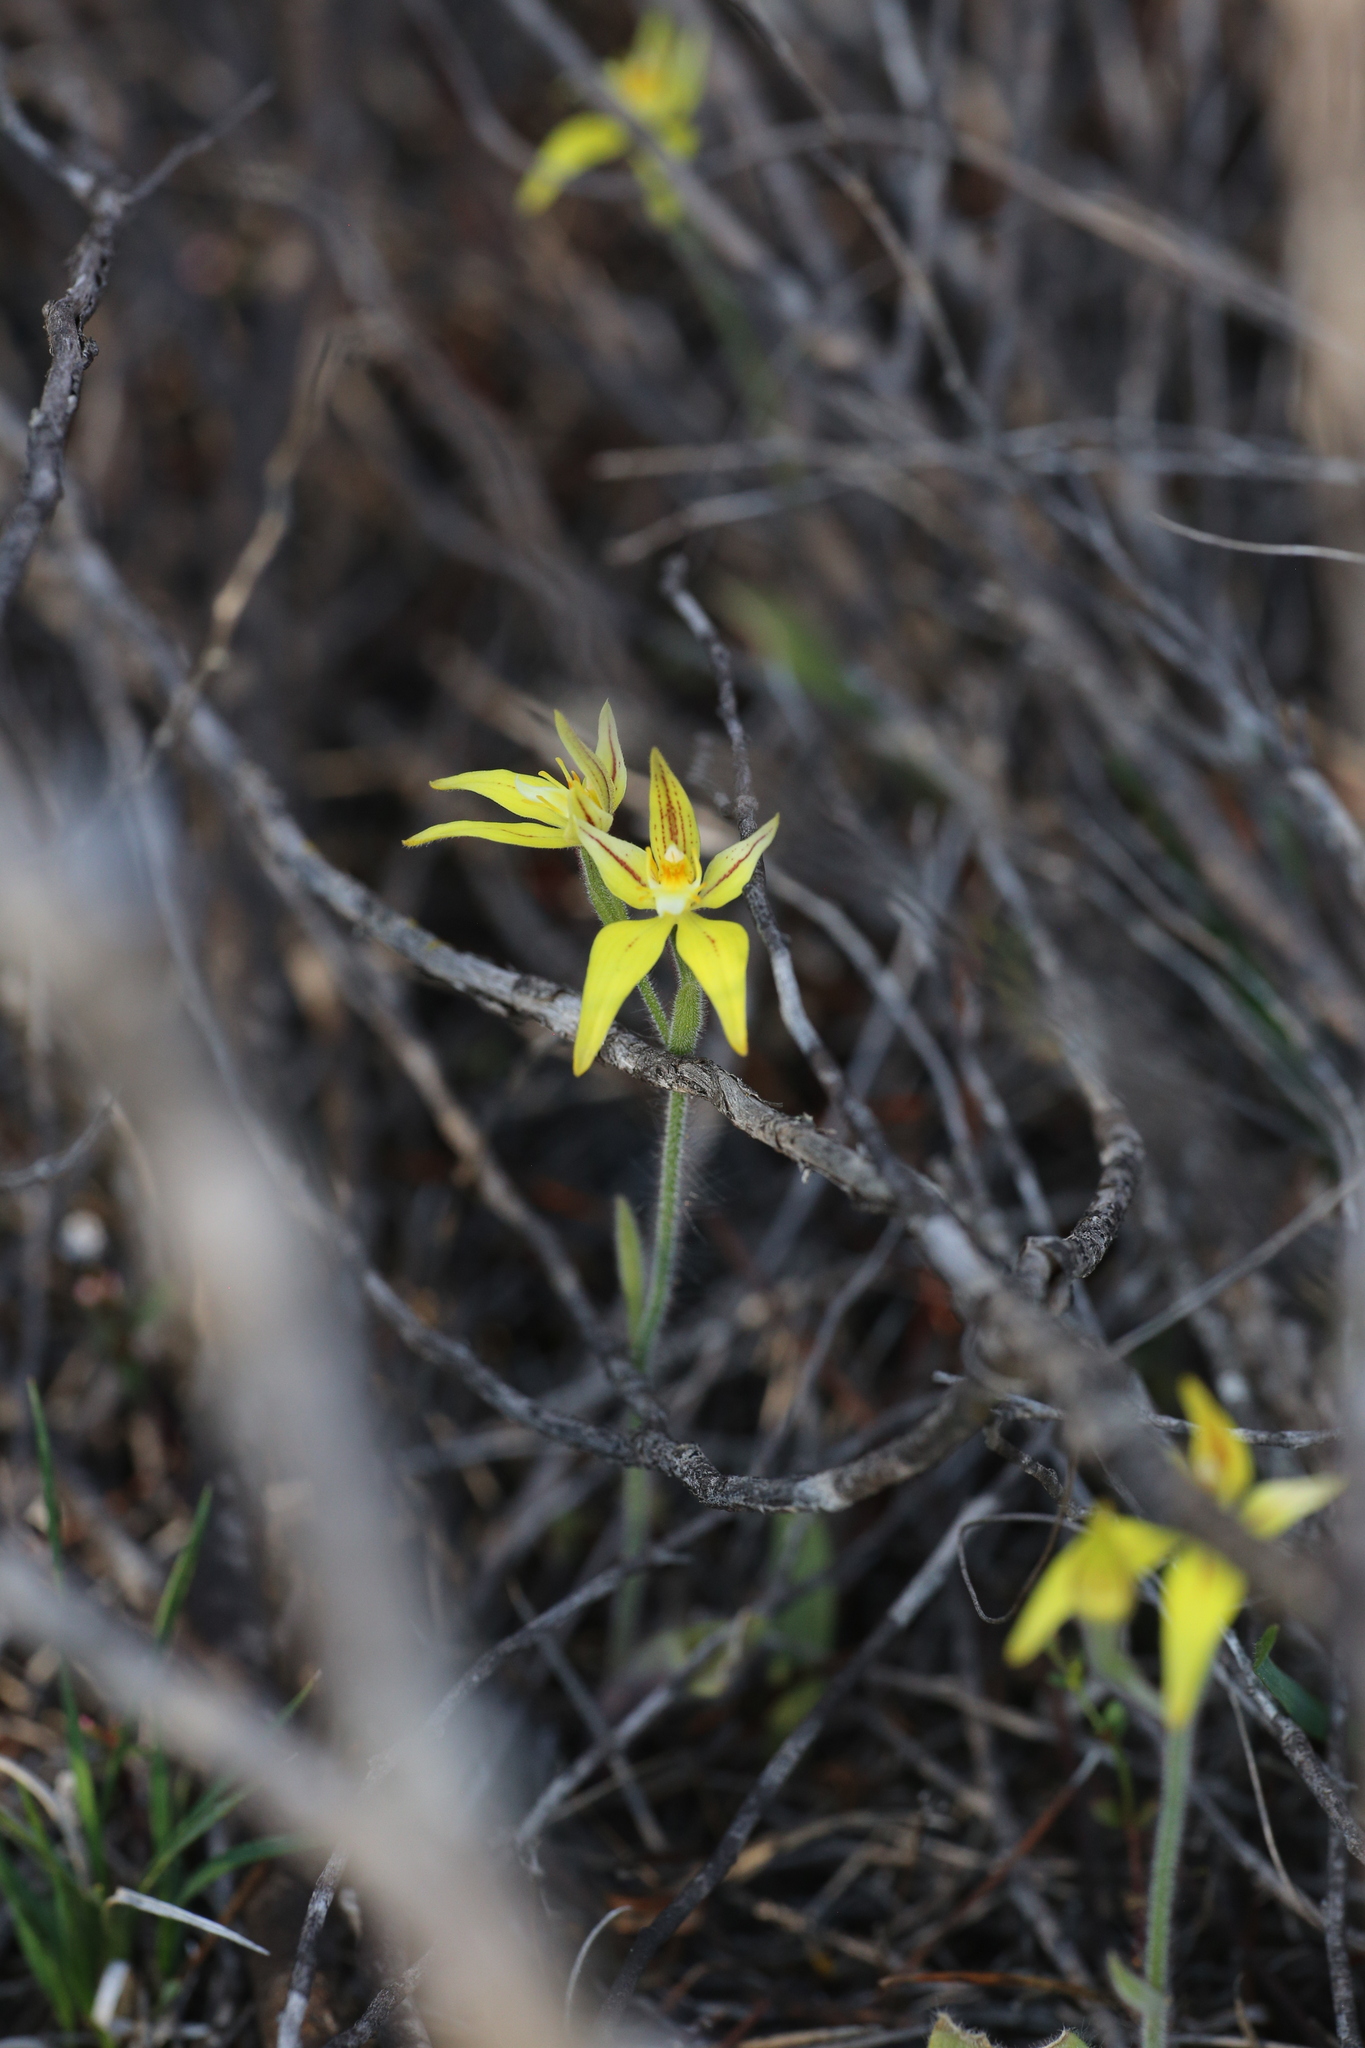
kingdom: Plantae
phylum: Tracheophyta
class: Liliopsida
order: Asparagales
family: Orchidaceae
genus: Caladenia
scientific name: Caladenia flava
